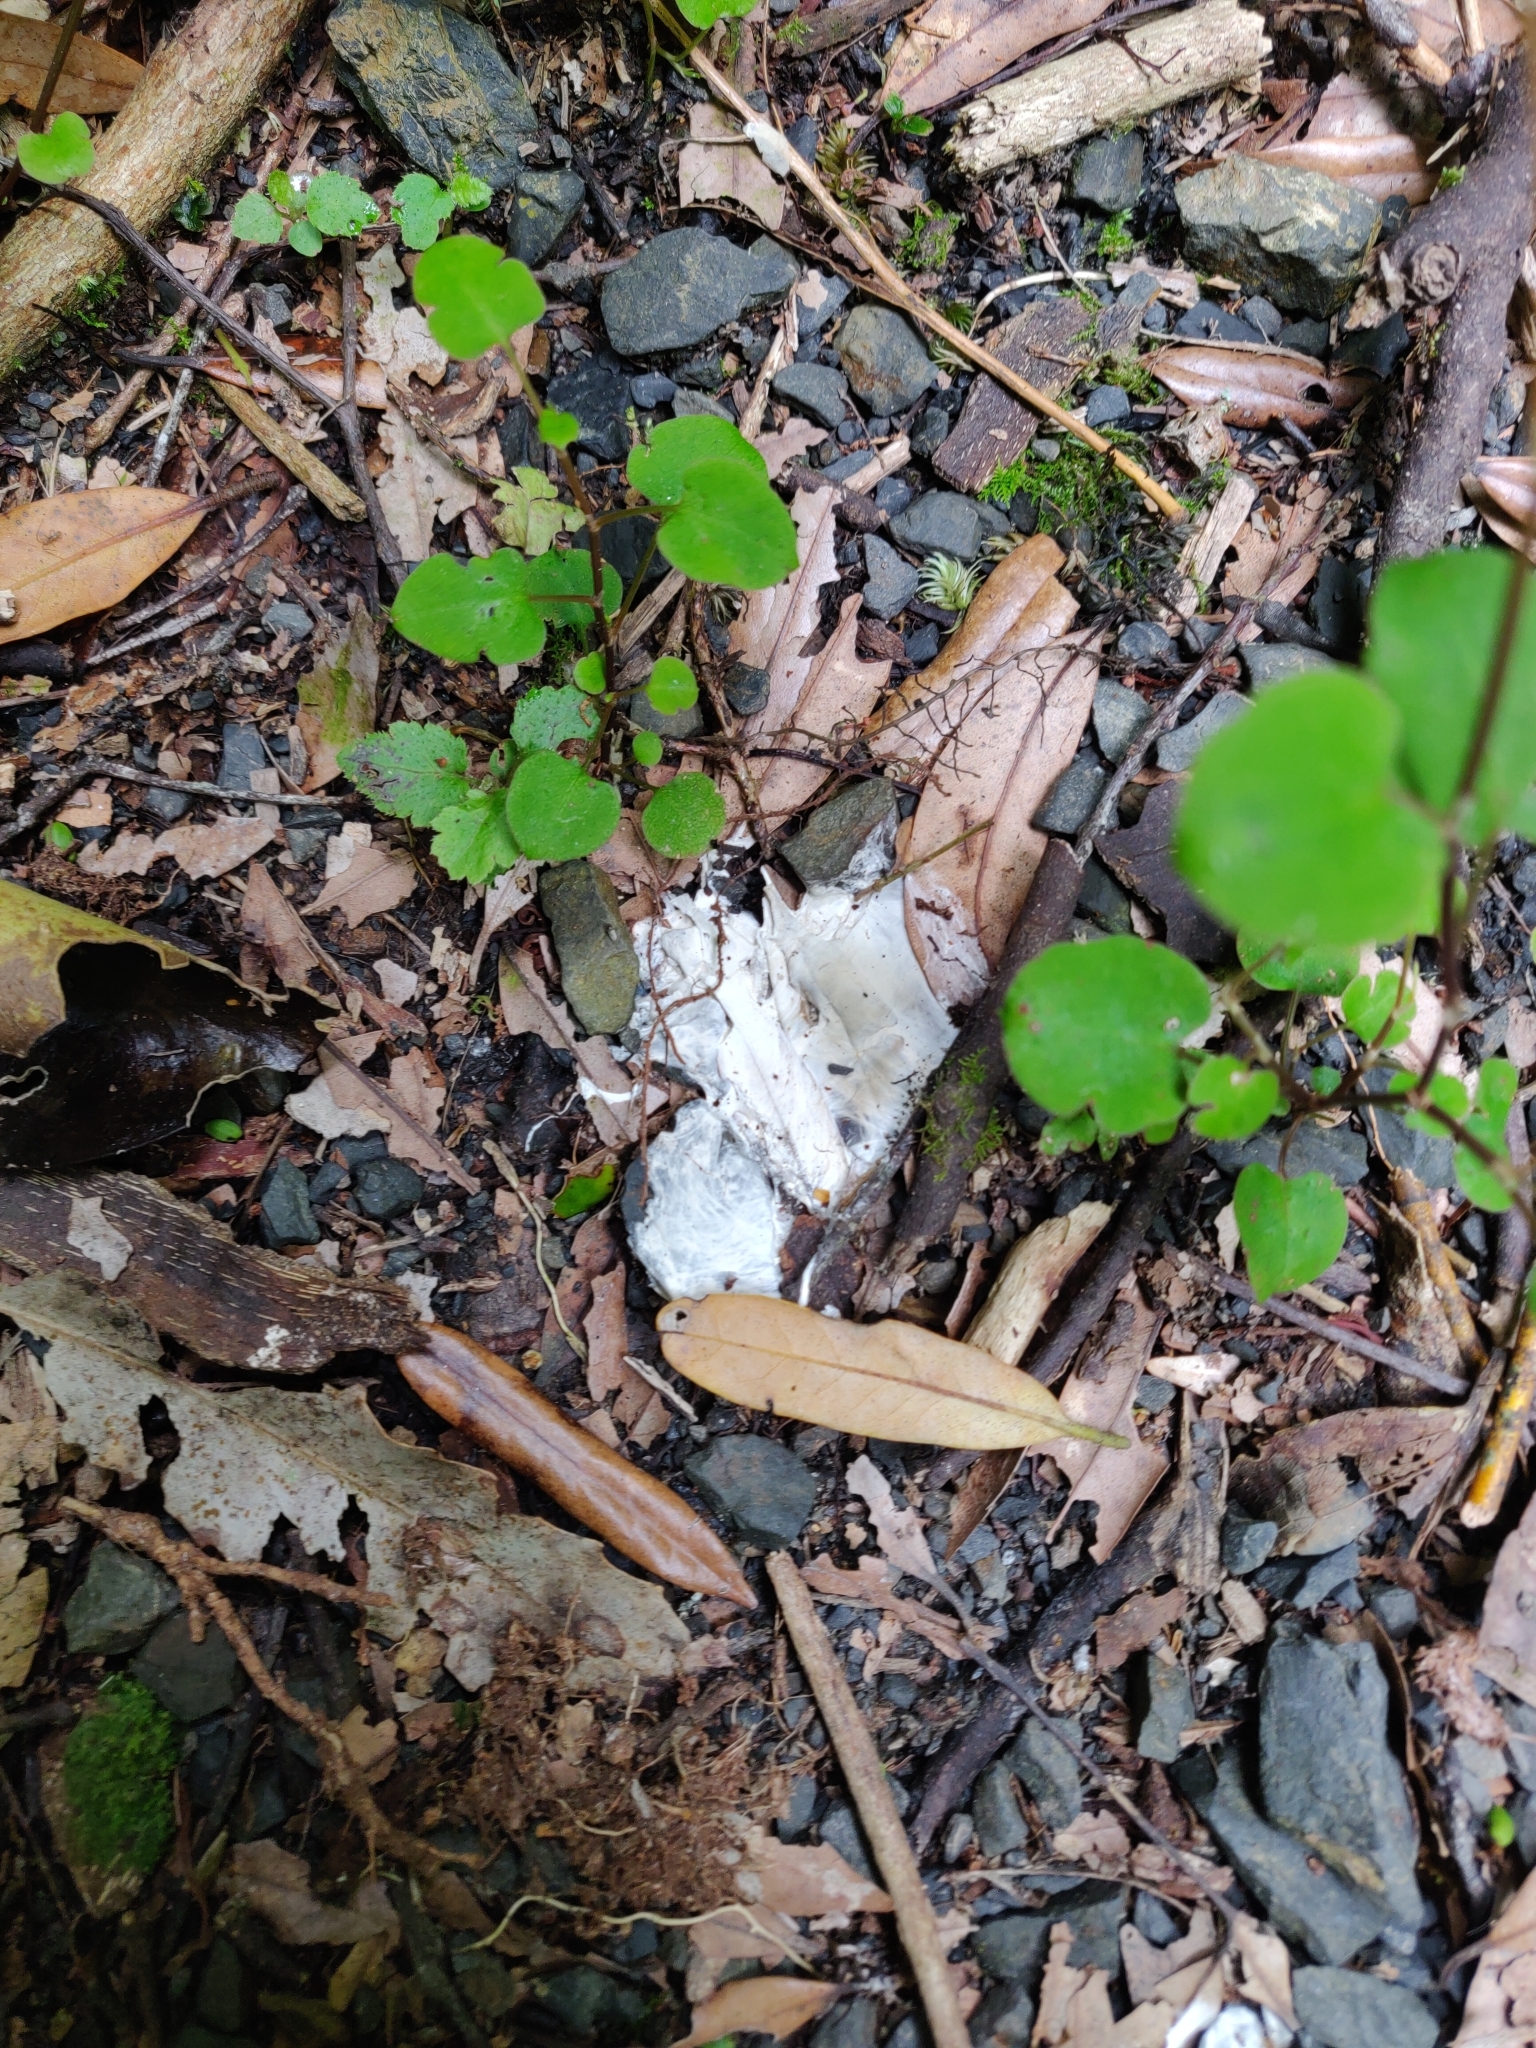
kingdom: Plantae
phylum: Tracheophyta
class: Magnoliopsida
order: Caryophyllales
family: Polygonaceae
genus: Muehlenbeckia
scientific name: Muehlenbeckia australis
